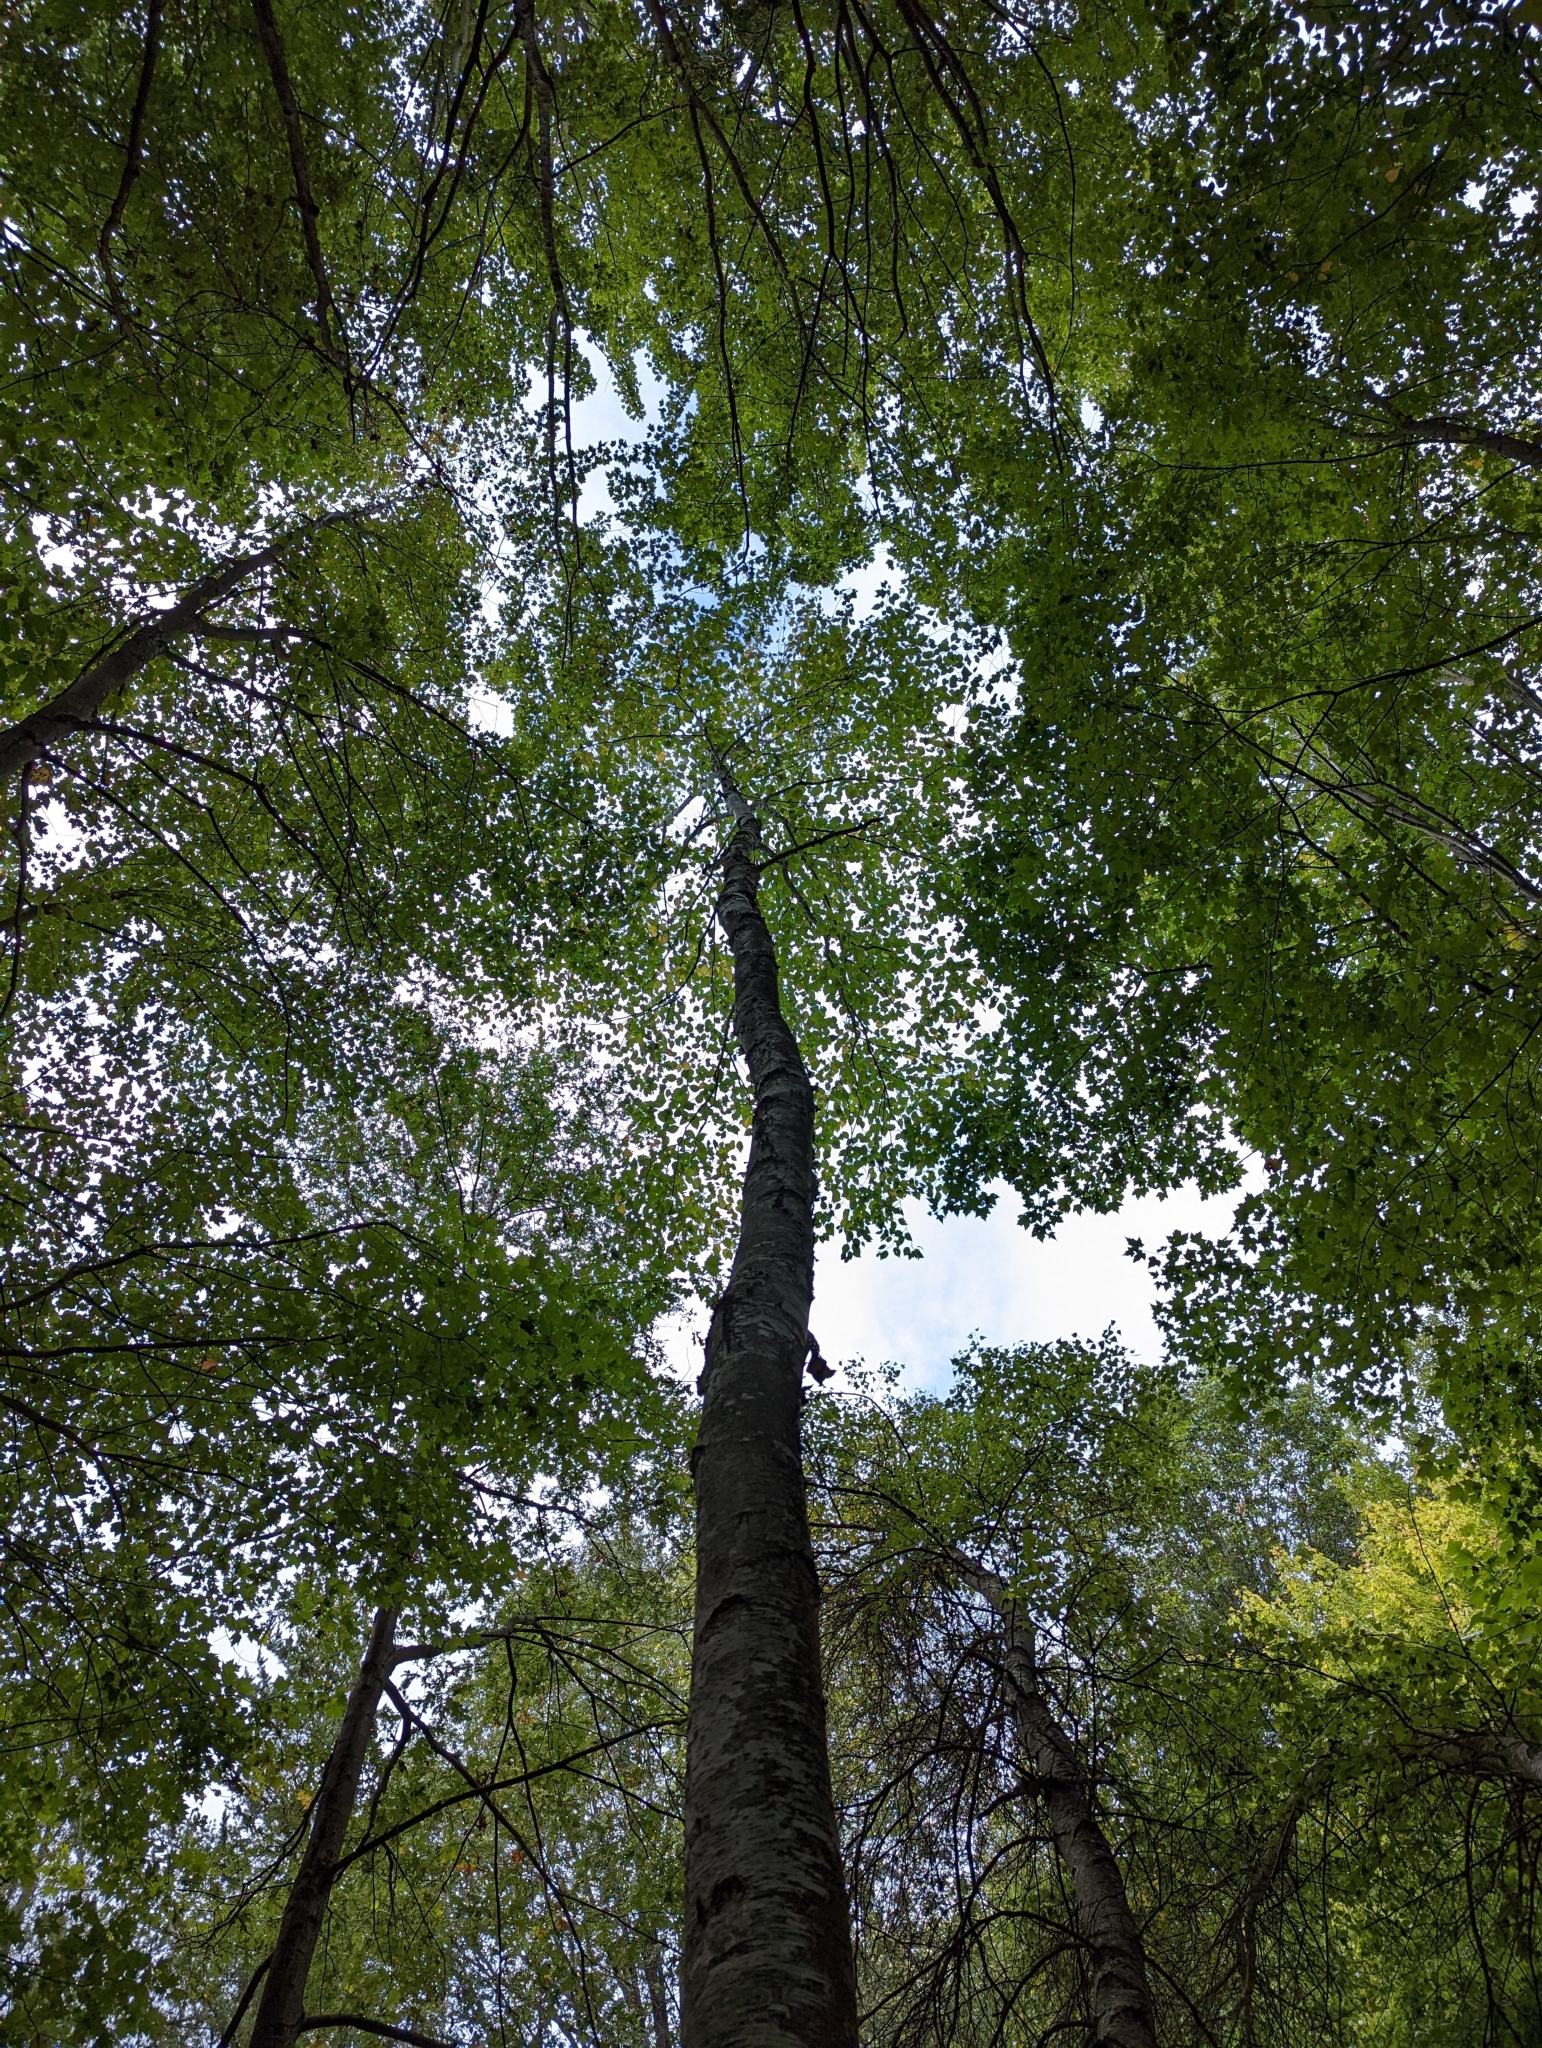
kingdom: Plantae
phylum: Tracheophyta
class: Magnoliopsida
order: Fagales
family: Betulaceae
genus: Betula
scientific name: Betula papyrifera
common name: Paper birch
